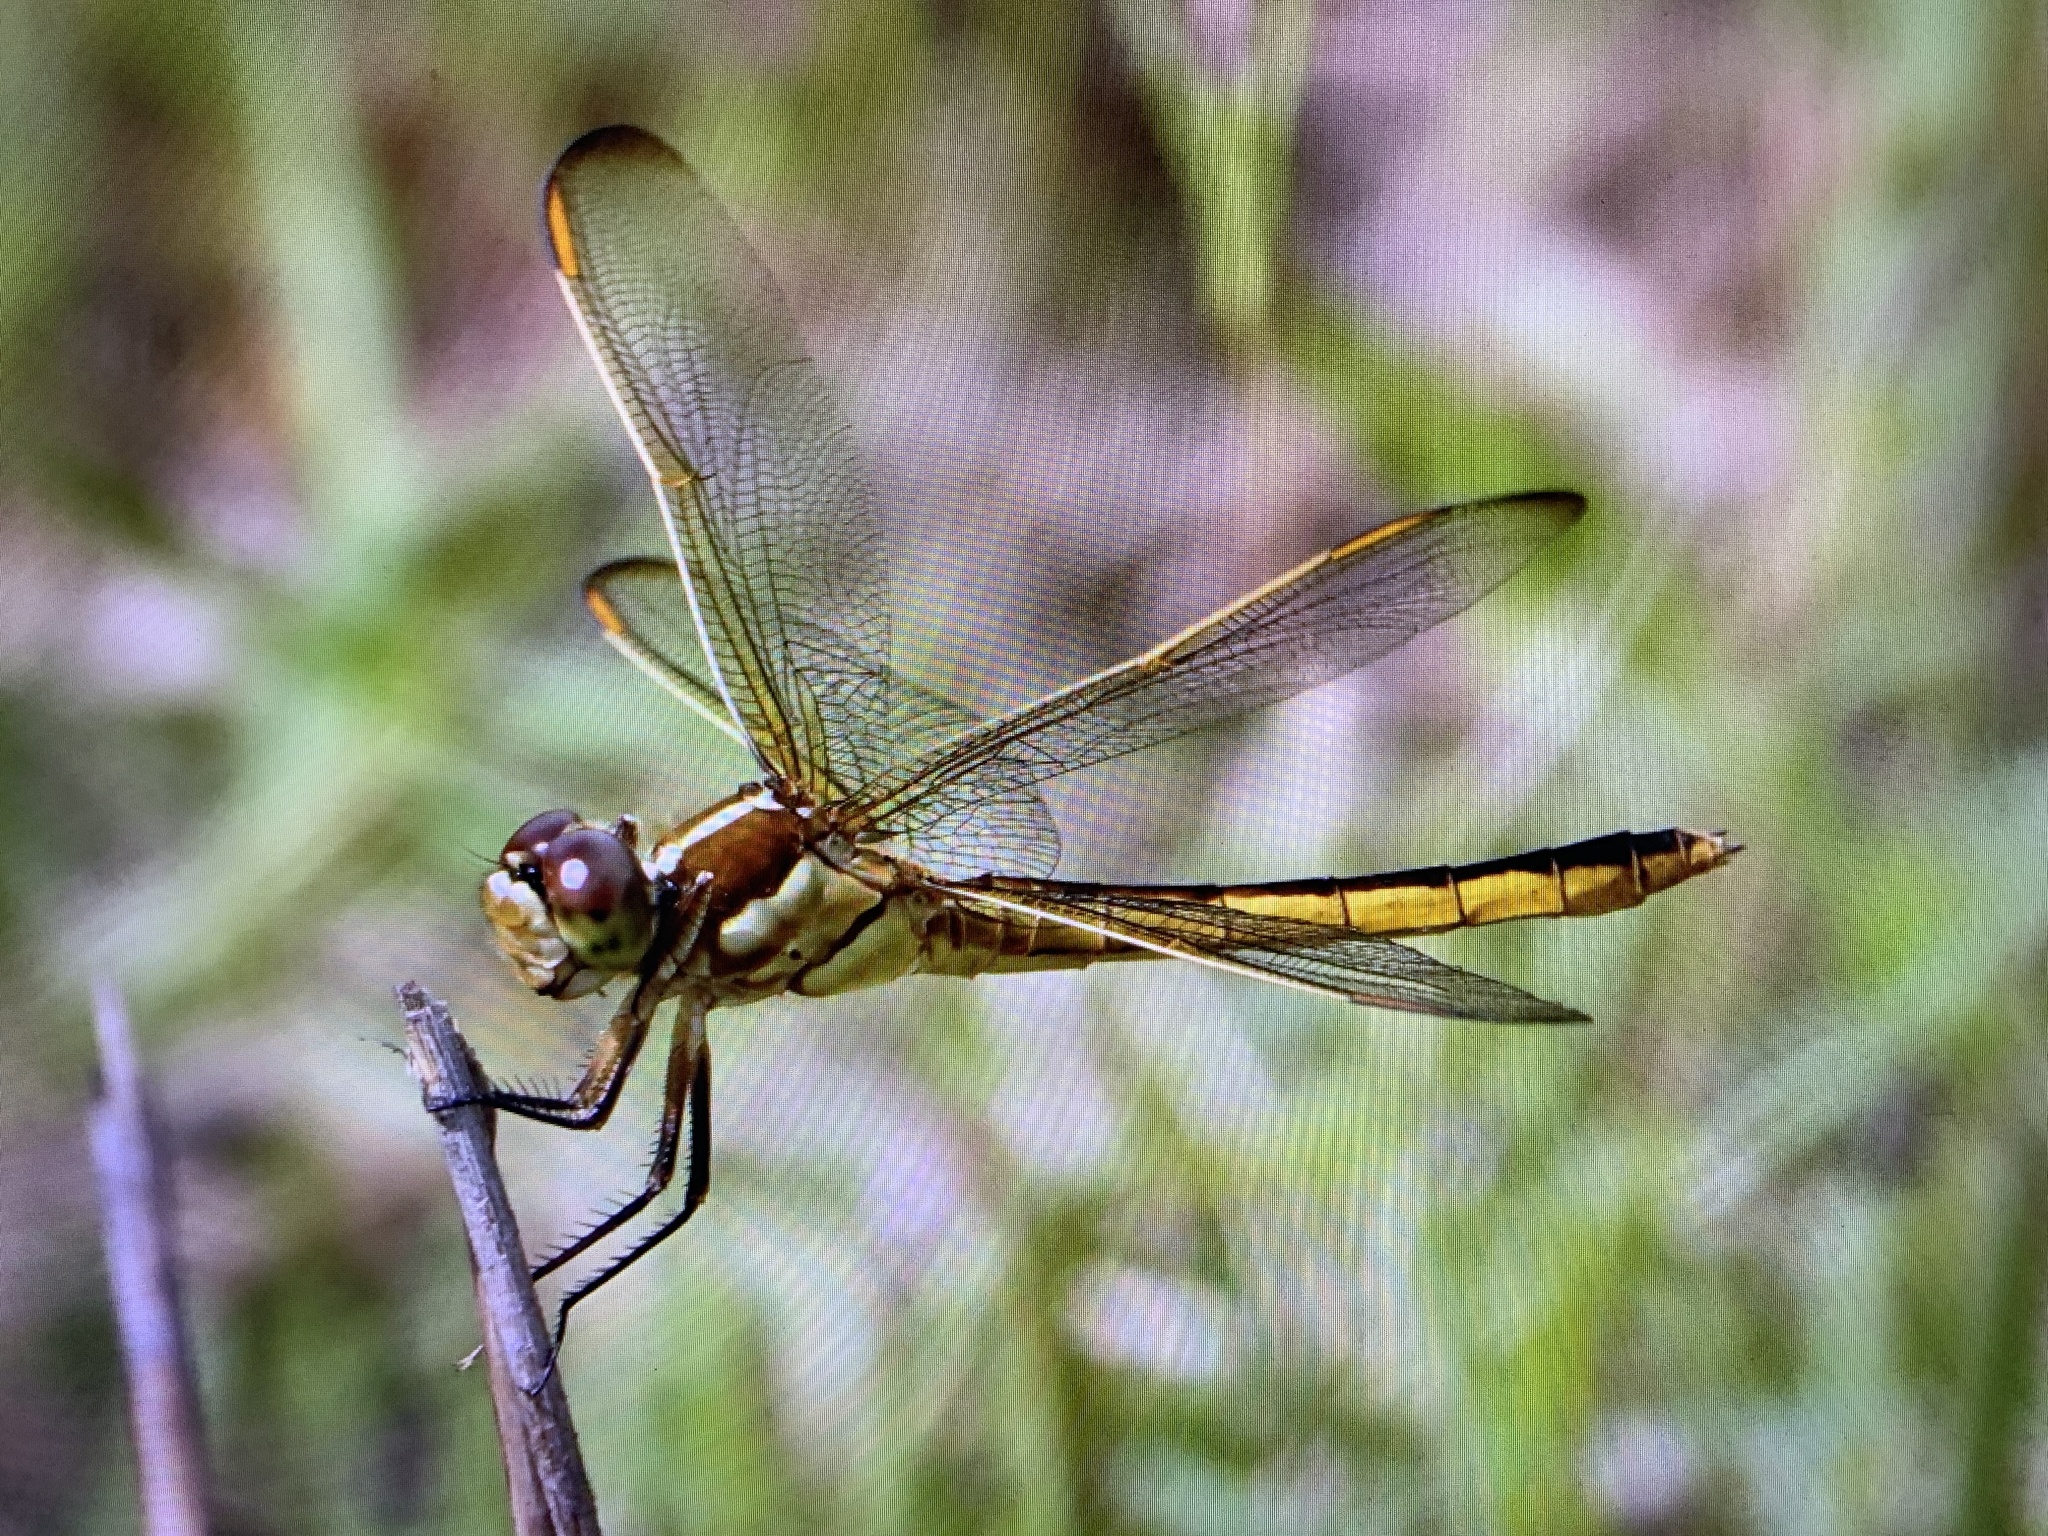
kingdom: Animalia
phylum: Arthropoda
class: Insecta
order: Odonata
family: Libellulidae
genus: Libellula
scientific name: Libellula auripennis
